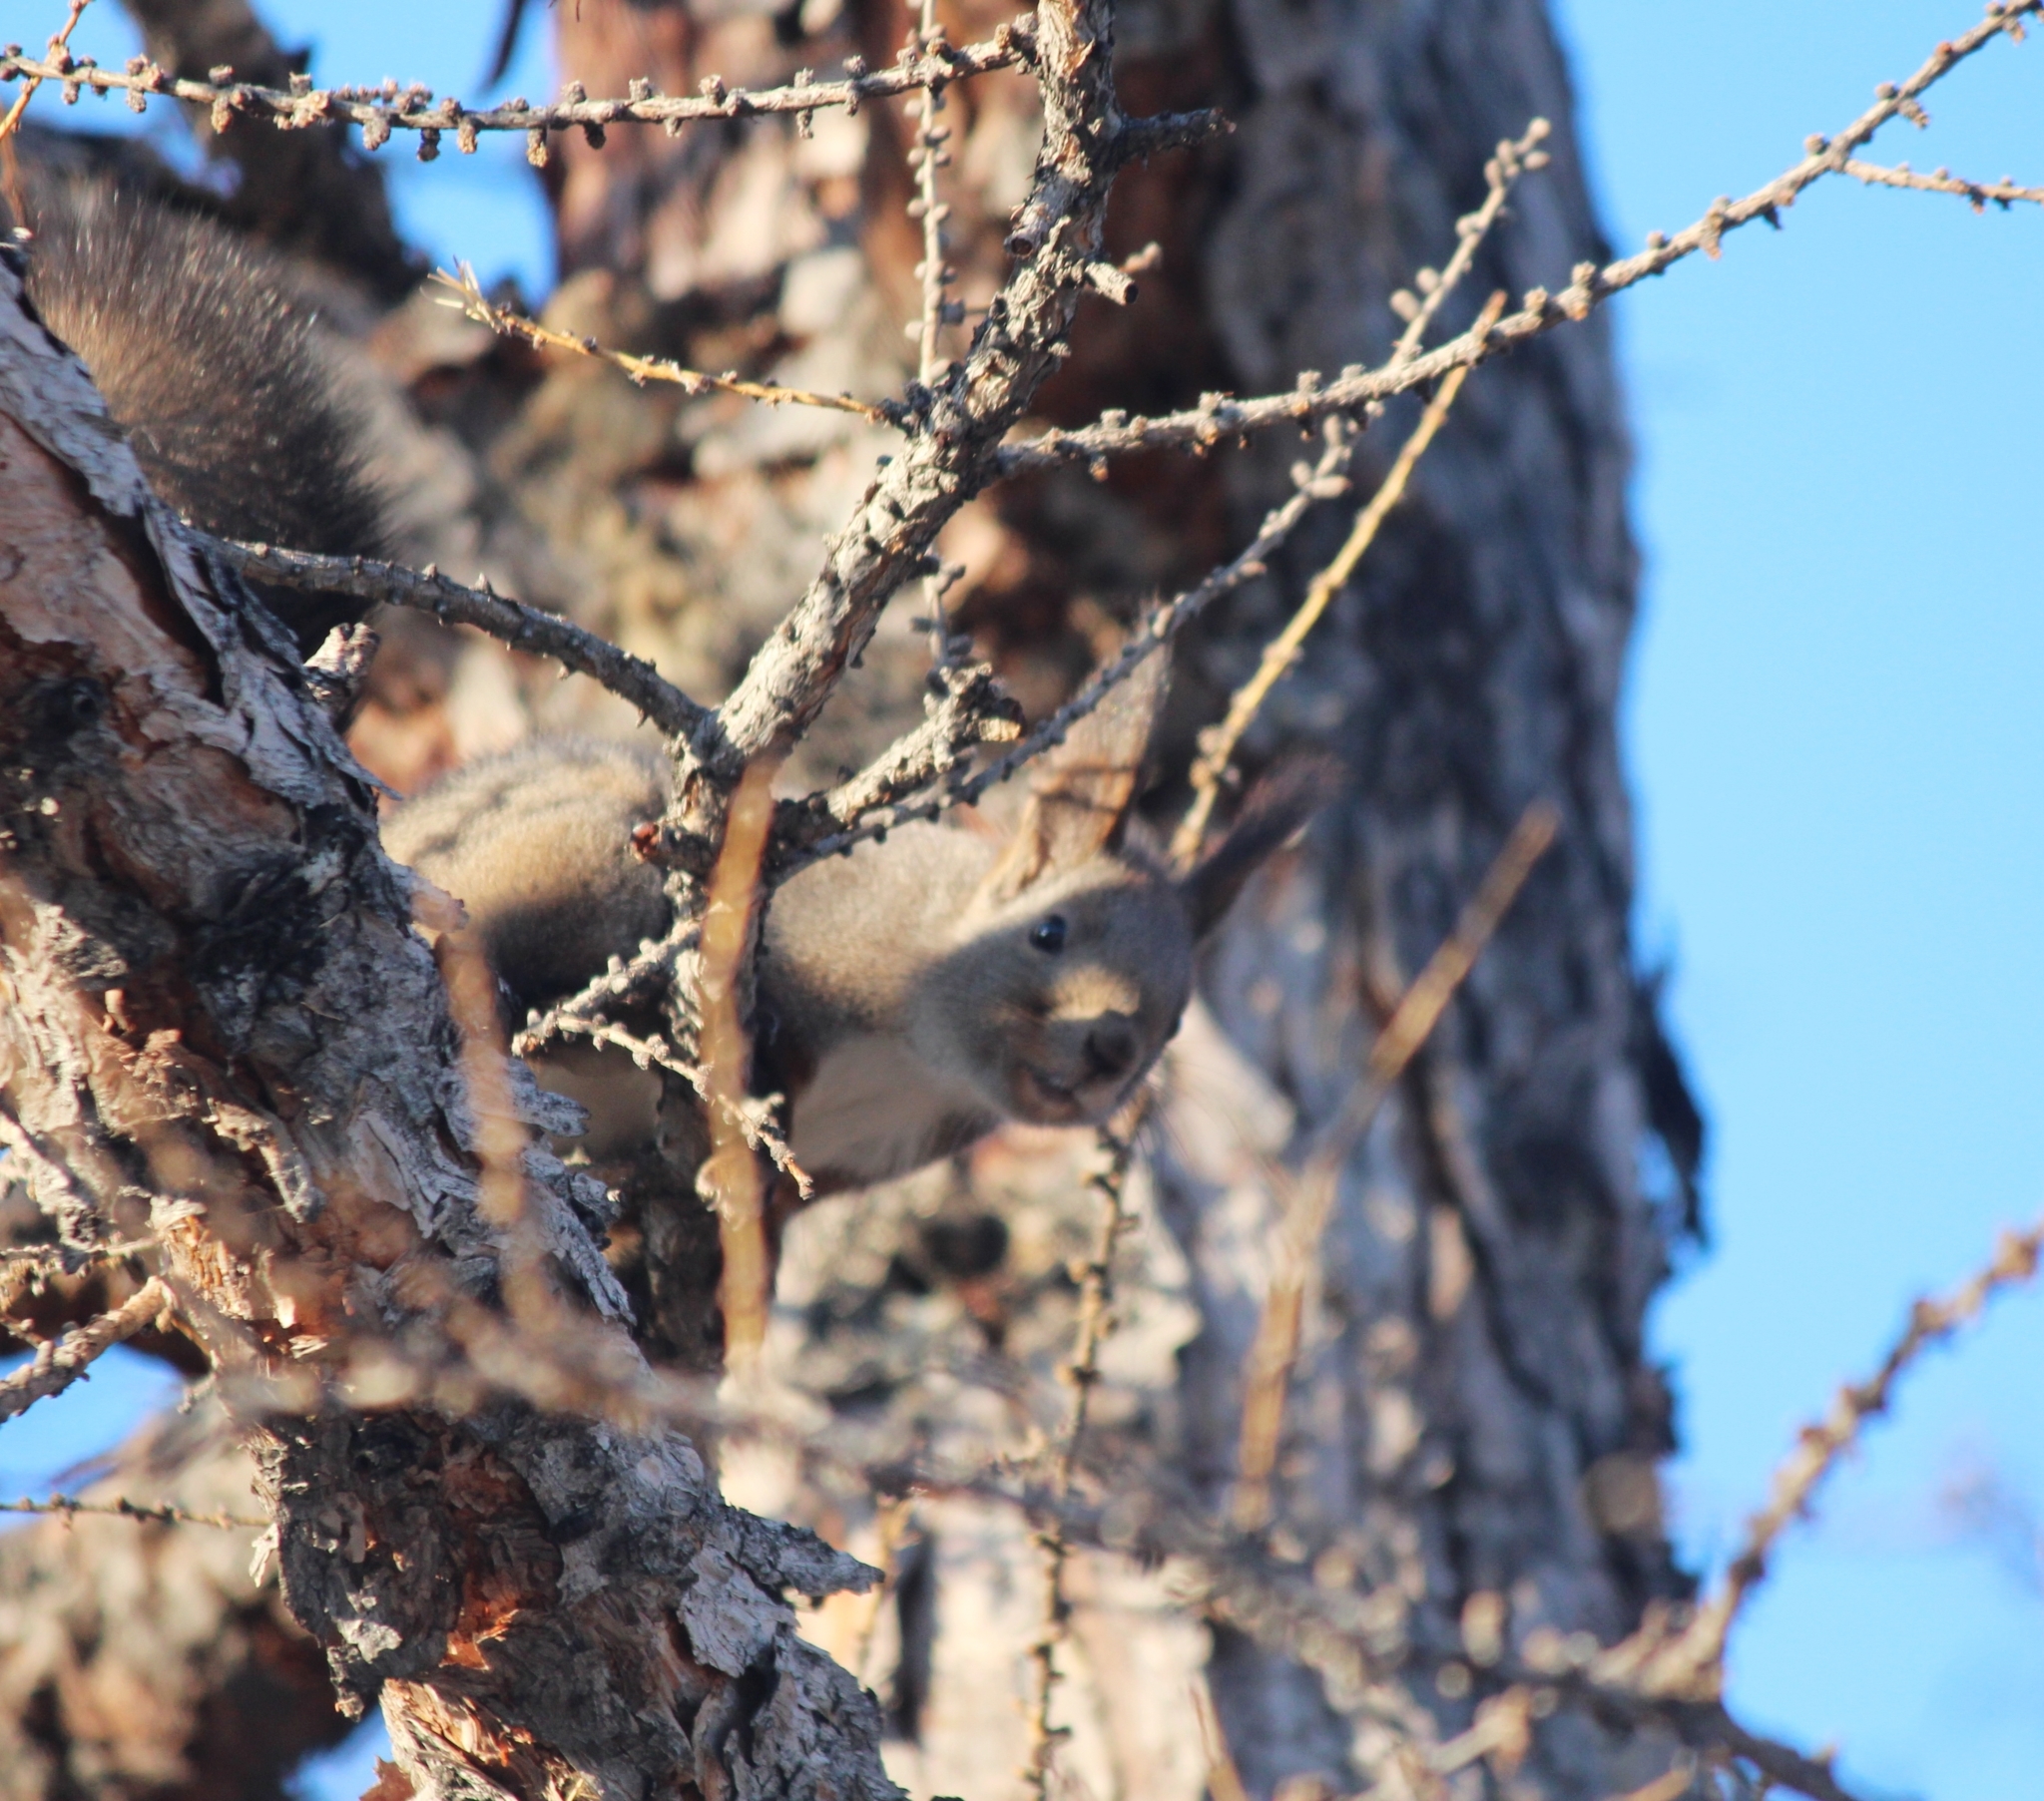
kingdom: Animalia
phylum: Chordata
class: Mammalia
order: Rodentia
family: Sciuridae
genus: Sciurus
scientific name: Sciurus vulgaris
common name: Eurasian red squirrel
